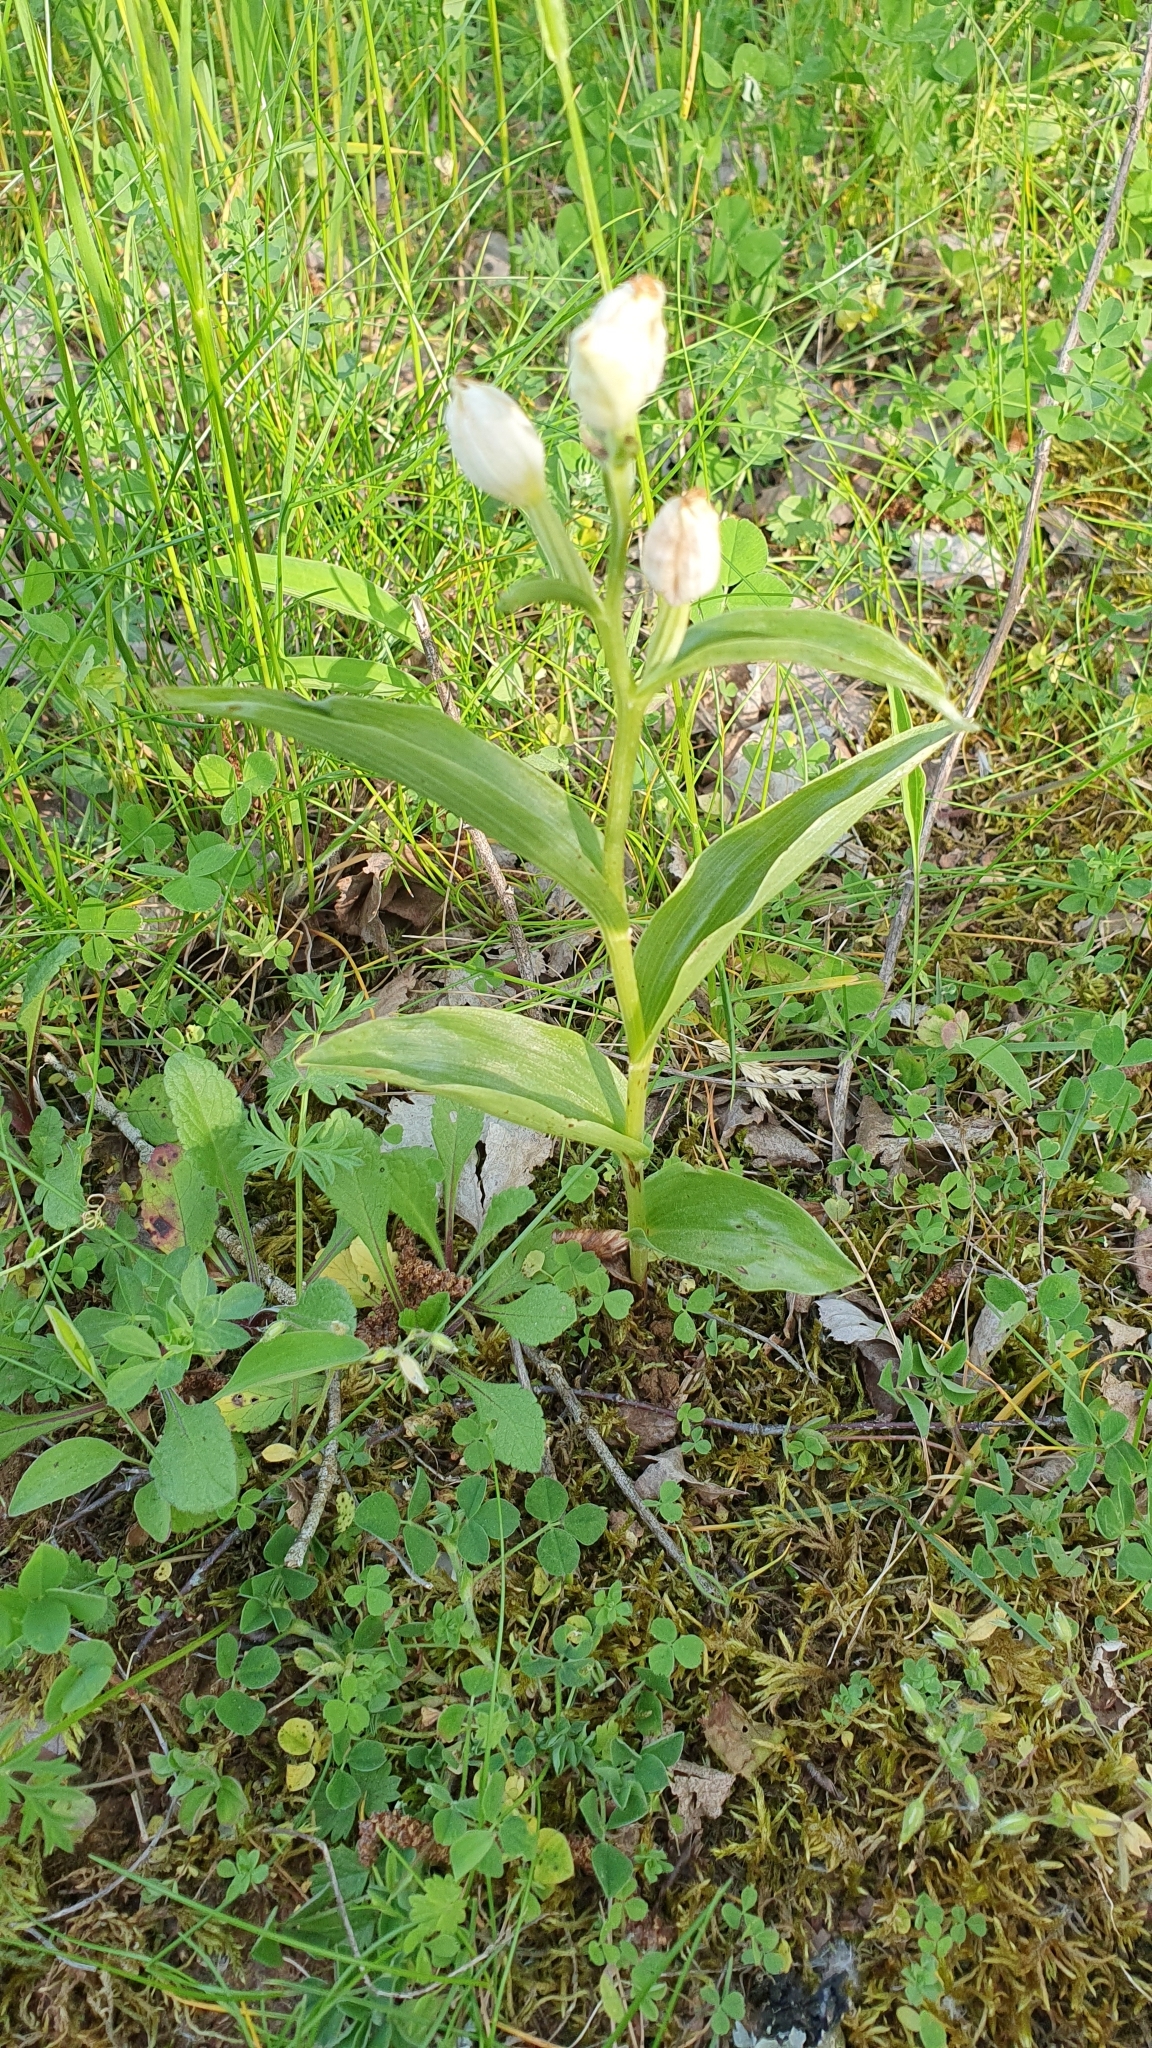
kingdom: Plantae
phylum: Tracheophyta
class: Liliopsida
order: Asparagales
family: Orchidaceae
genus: Cephalanthera
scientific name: Cephalanthera damasonium
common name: White helleborine
